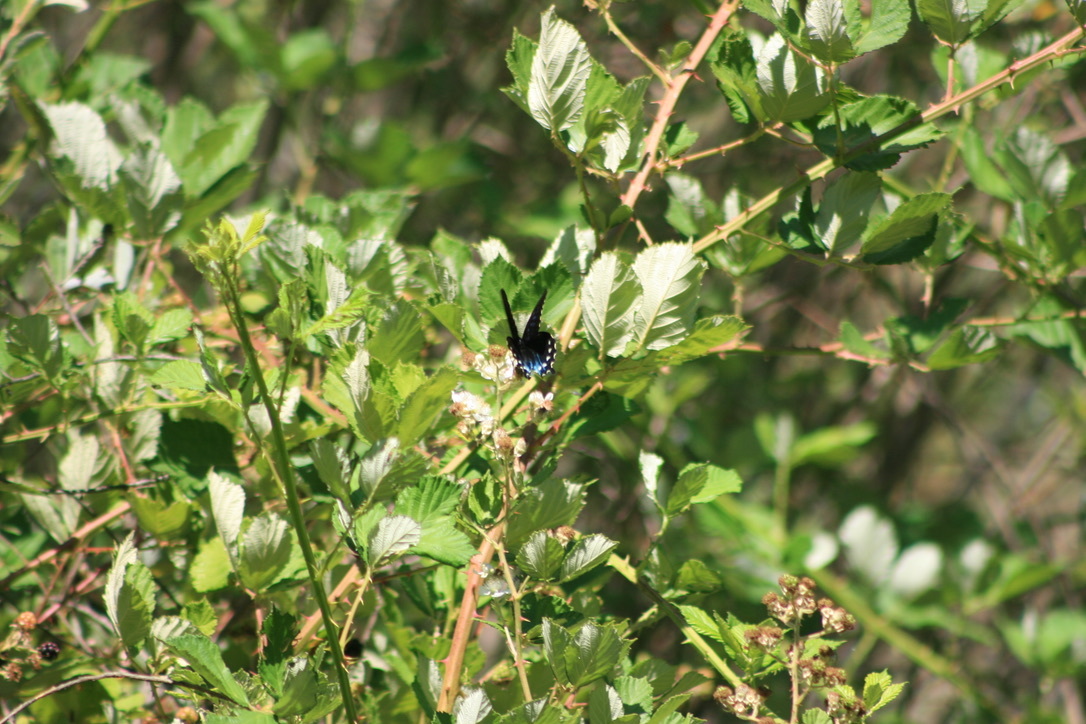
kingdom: Animalia
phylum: Arthropoda
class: Insecta
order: Lepidoptera
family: Papilionidae
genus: Battus
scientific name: Battus philenor
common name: Pipevine swallowtail
